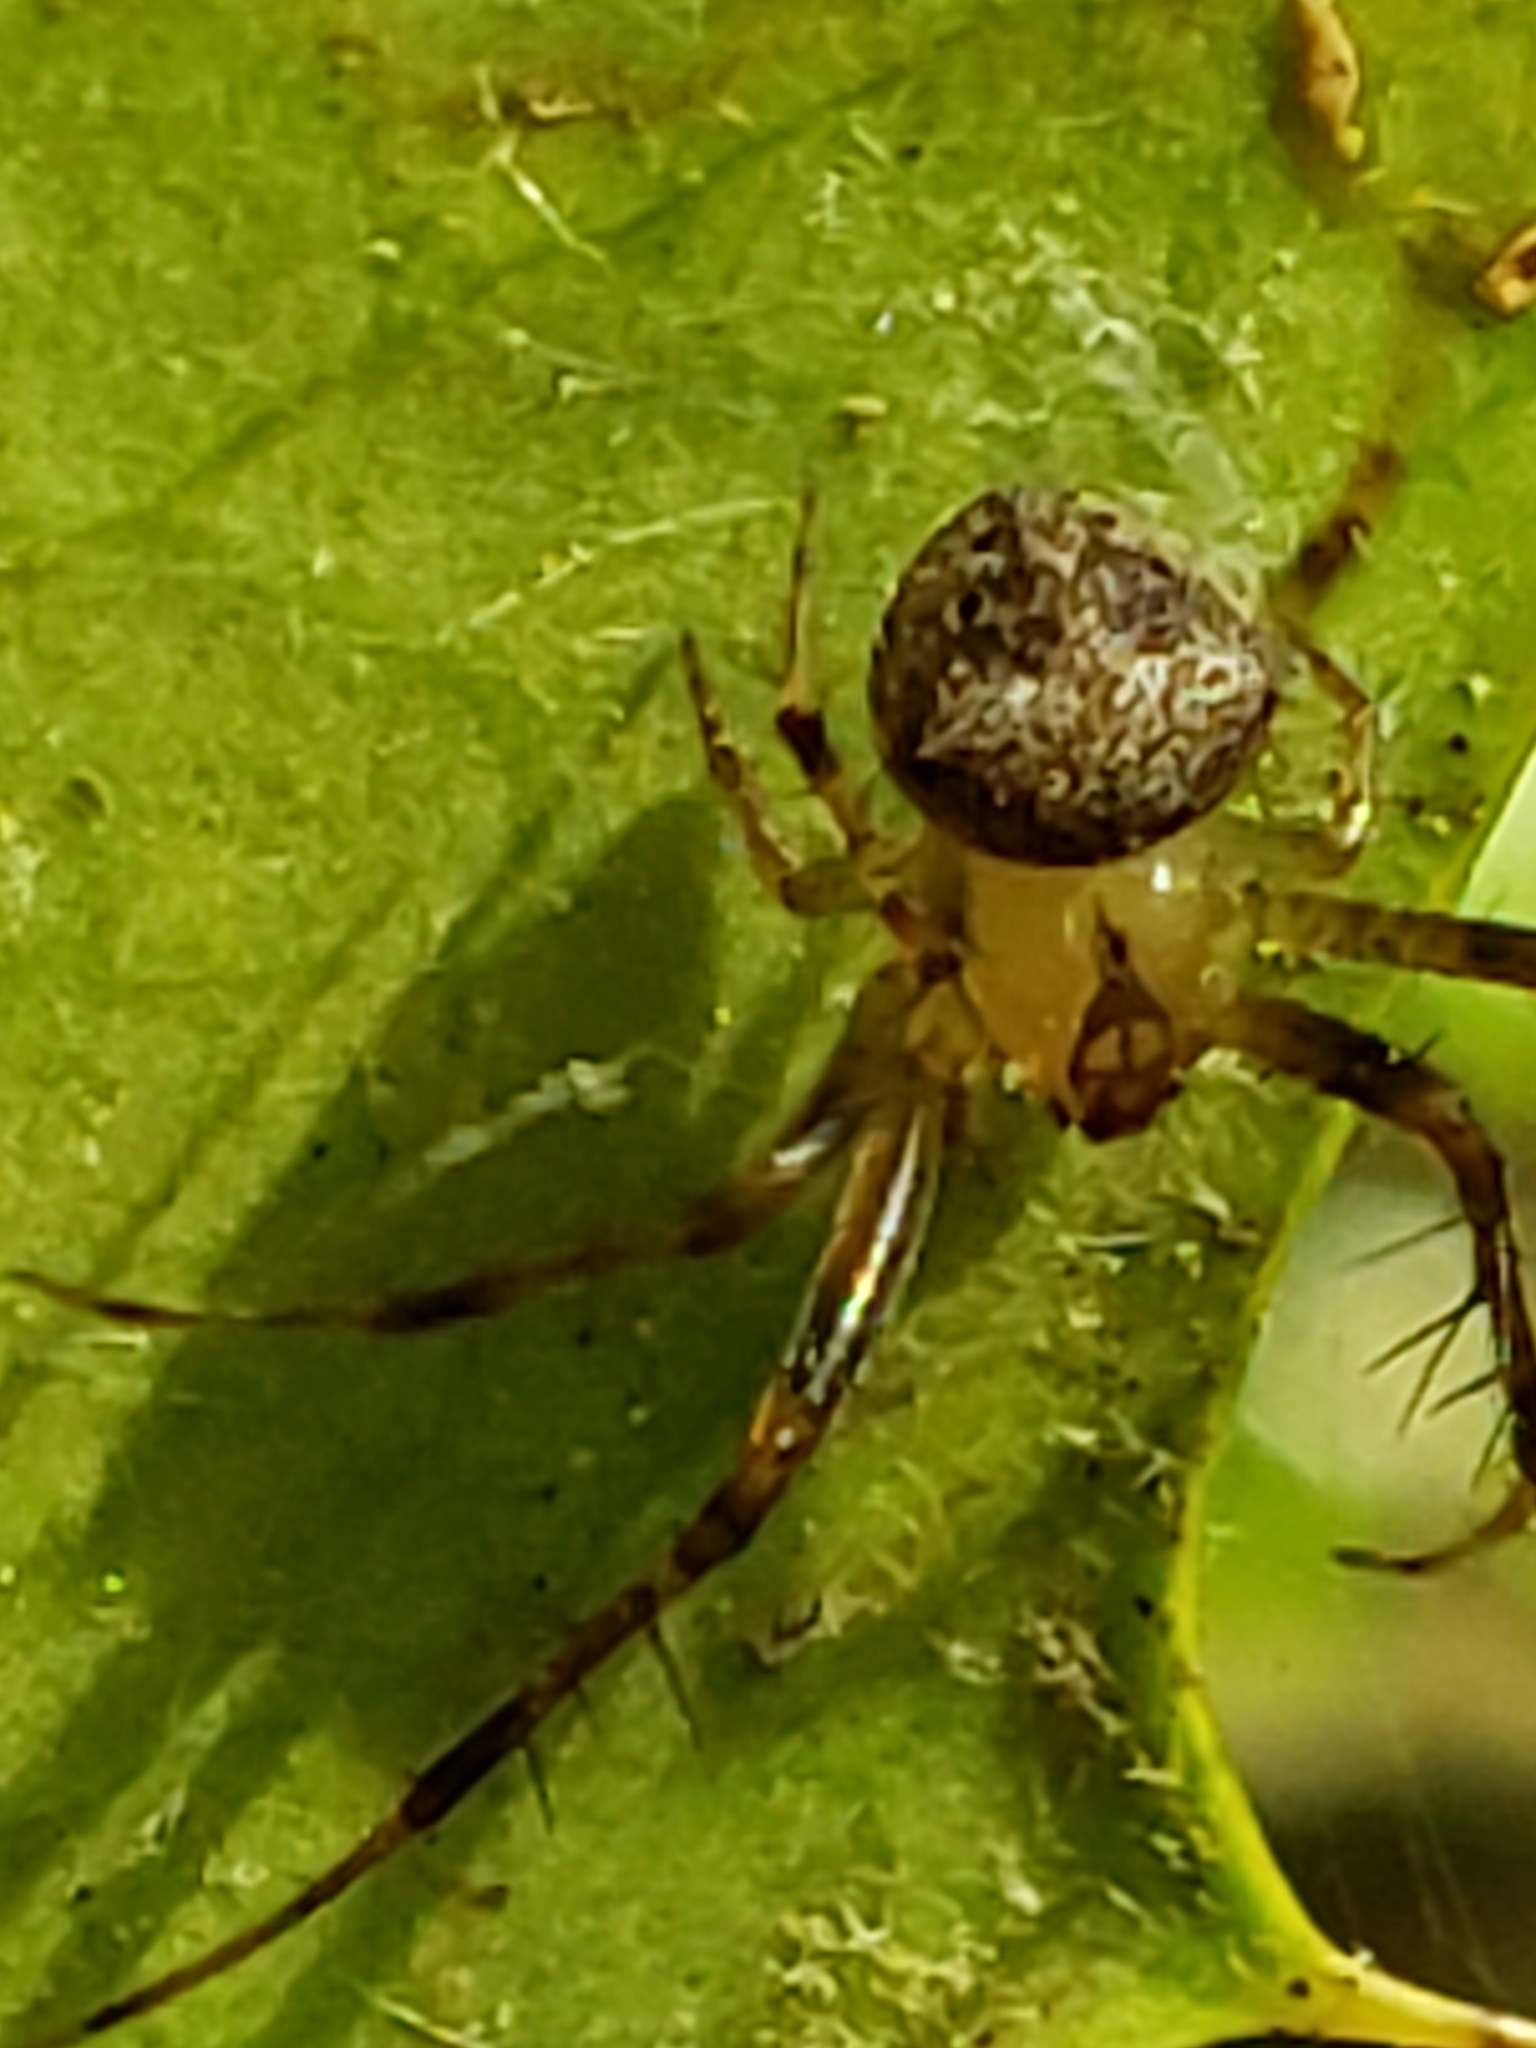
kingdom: Animalia
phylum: Arthropoda
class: Arachnida
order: Araneae
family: Araneidae
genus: Araneus
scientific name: Araneus miniatus
